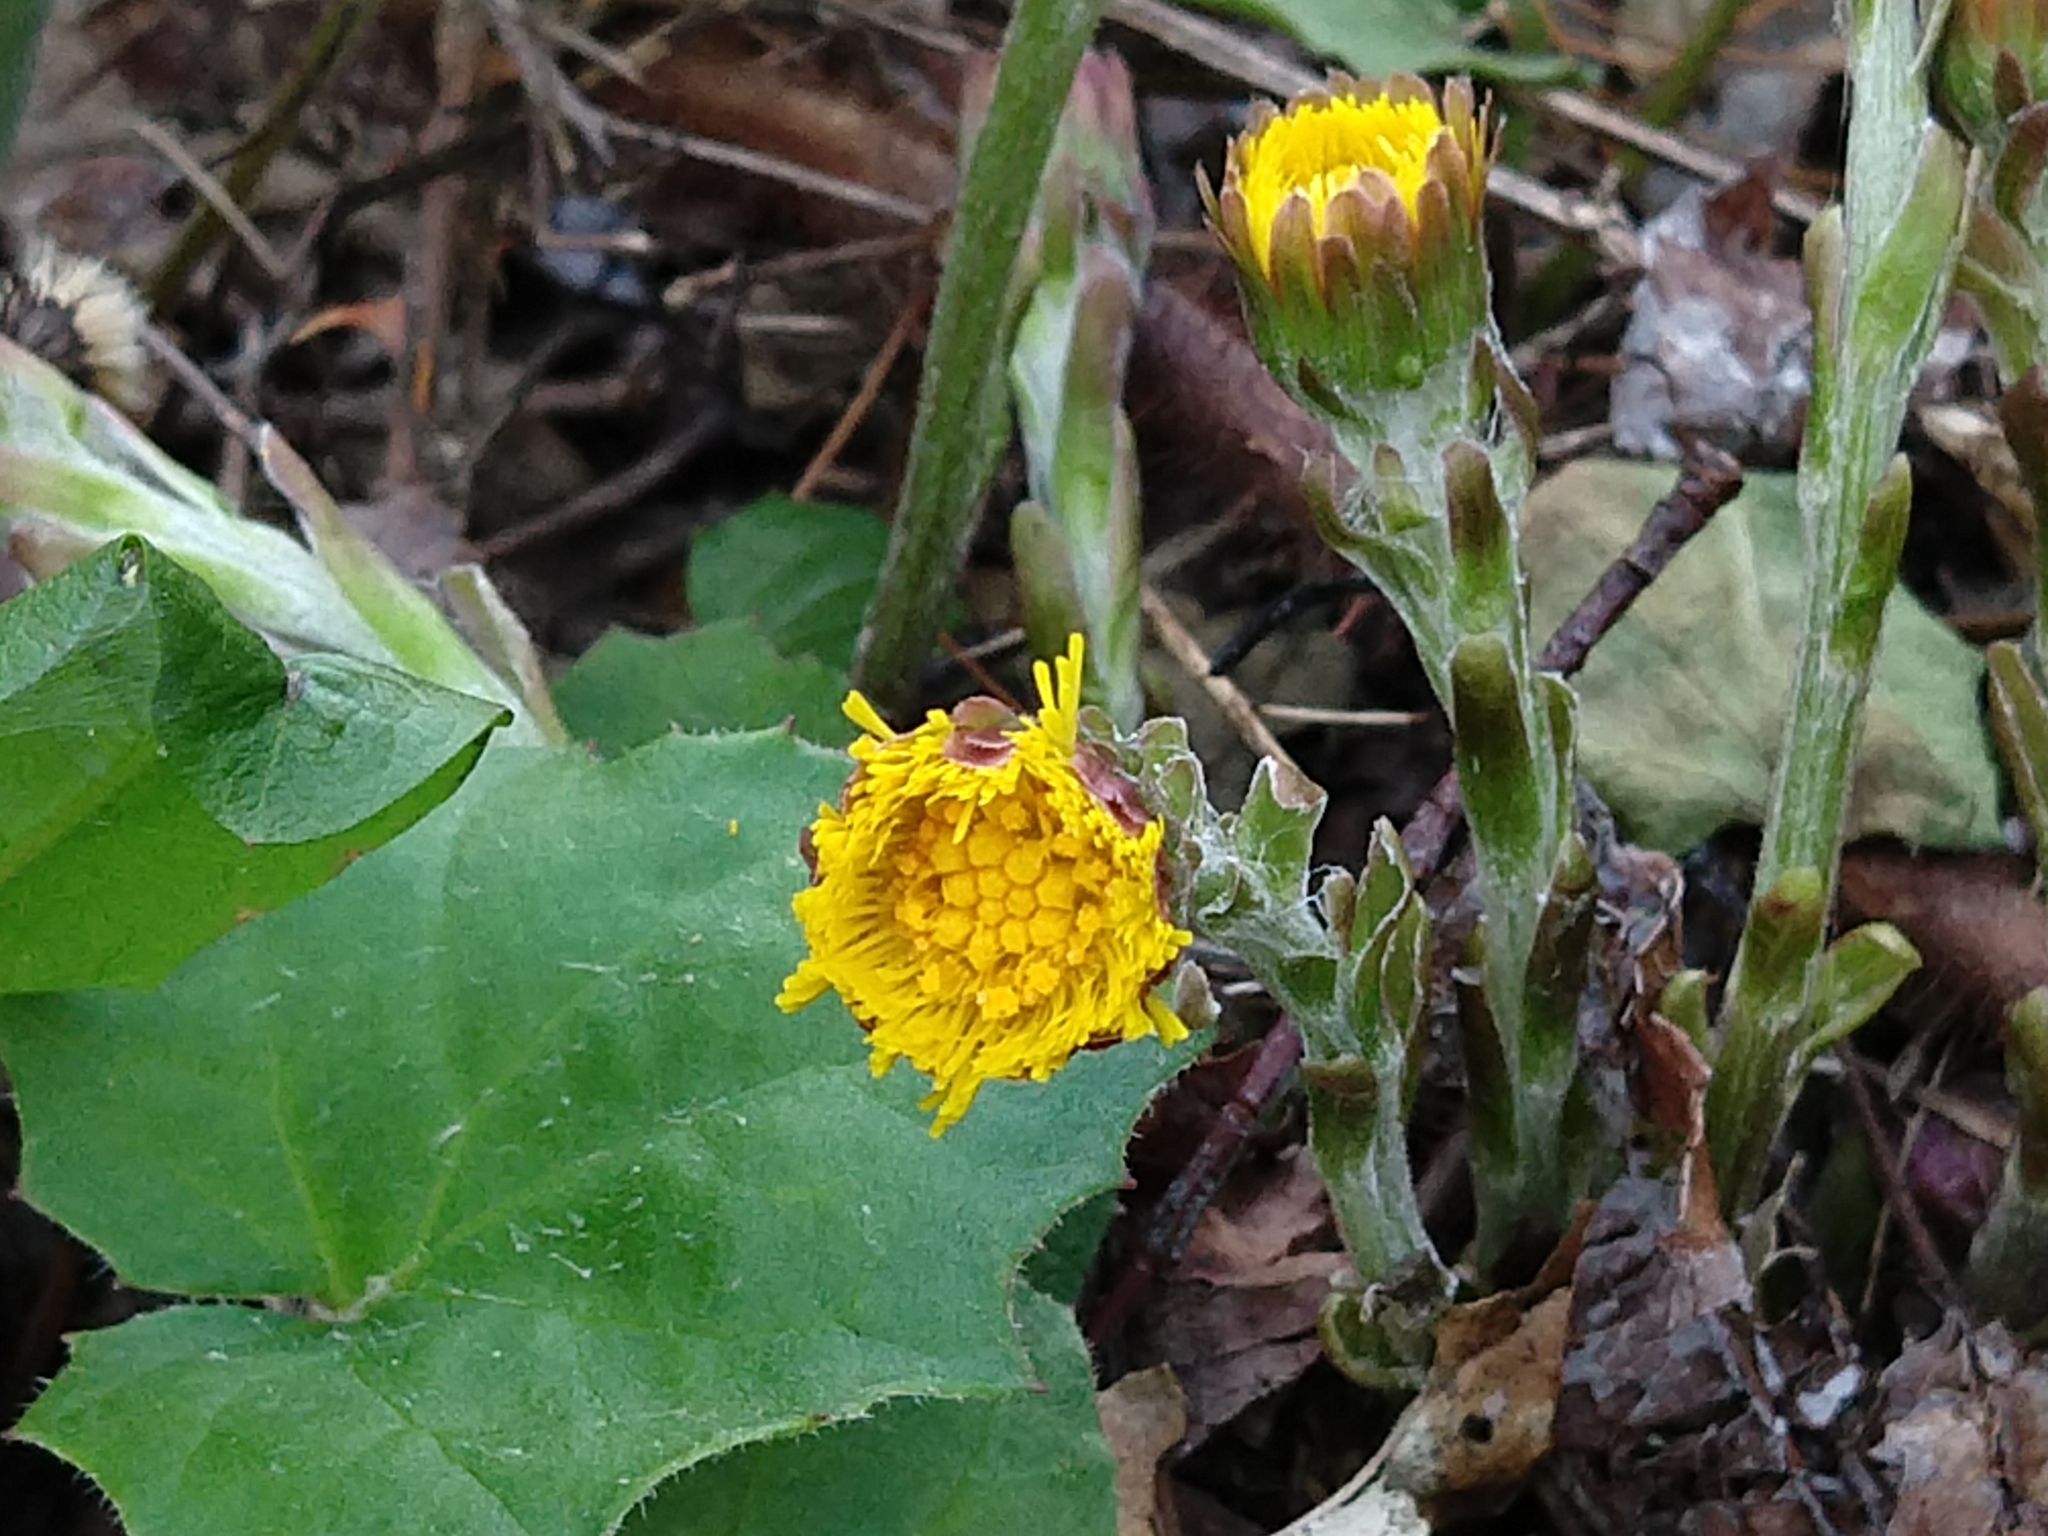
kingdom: Plantae
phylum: Tracheophyta
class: Magnoliopsida
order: Asterales
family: Asteraceae
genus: Tussilago
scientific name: Tussilago farfara
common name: Coltsfoot
